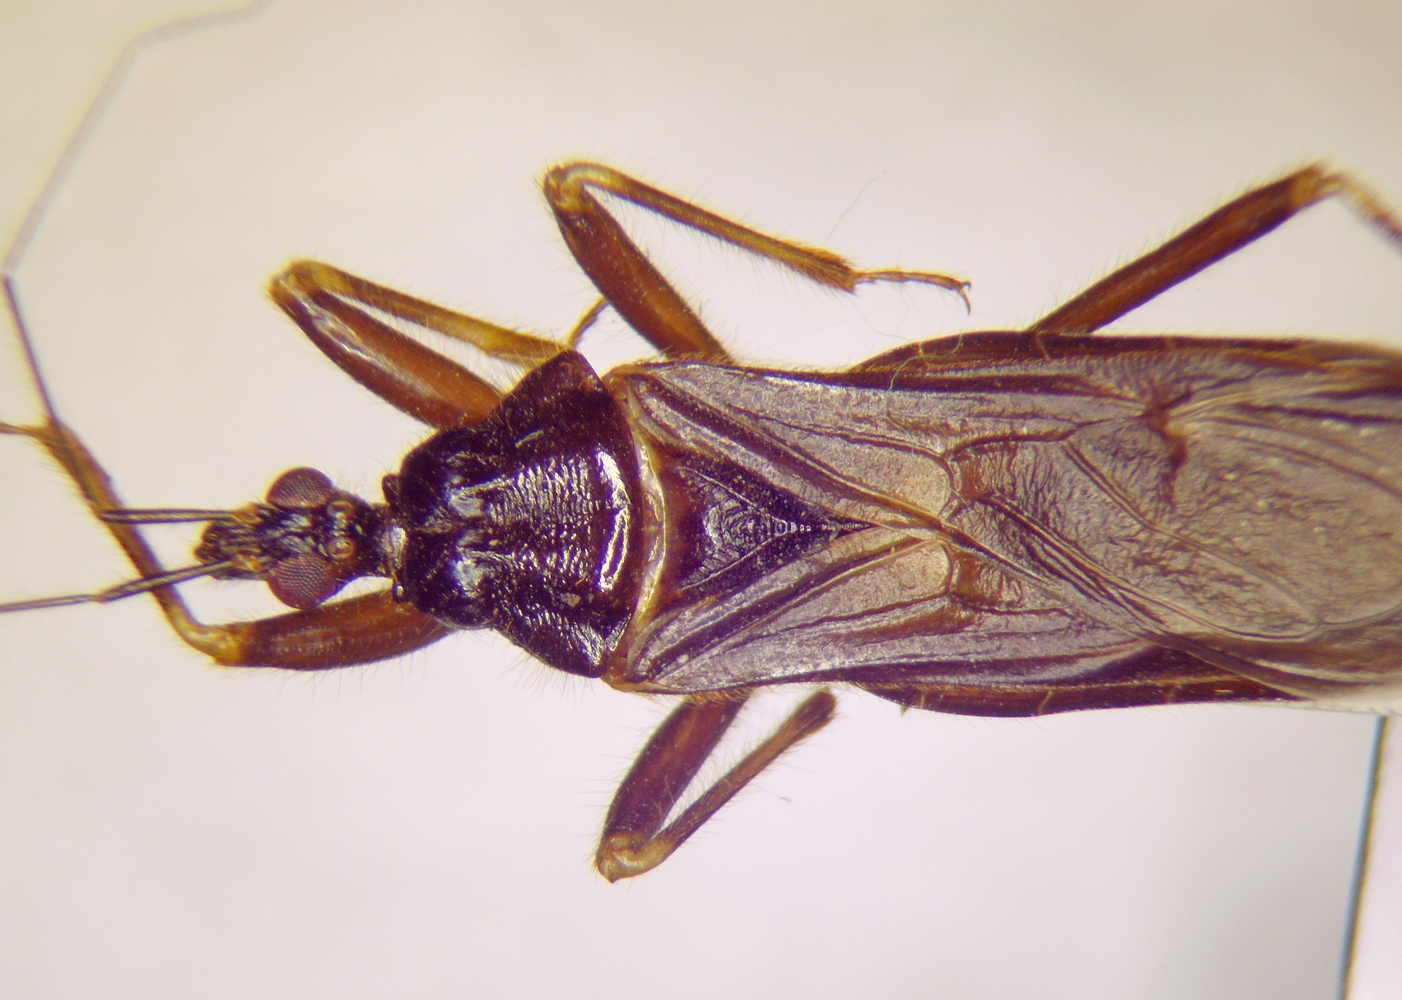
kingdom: Animalia
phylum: Arthropoda
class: Insecta
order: Hemiptera
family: Reduviidae
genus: Reduvius
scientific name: Reduvius personatus
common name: Masked hunter
